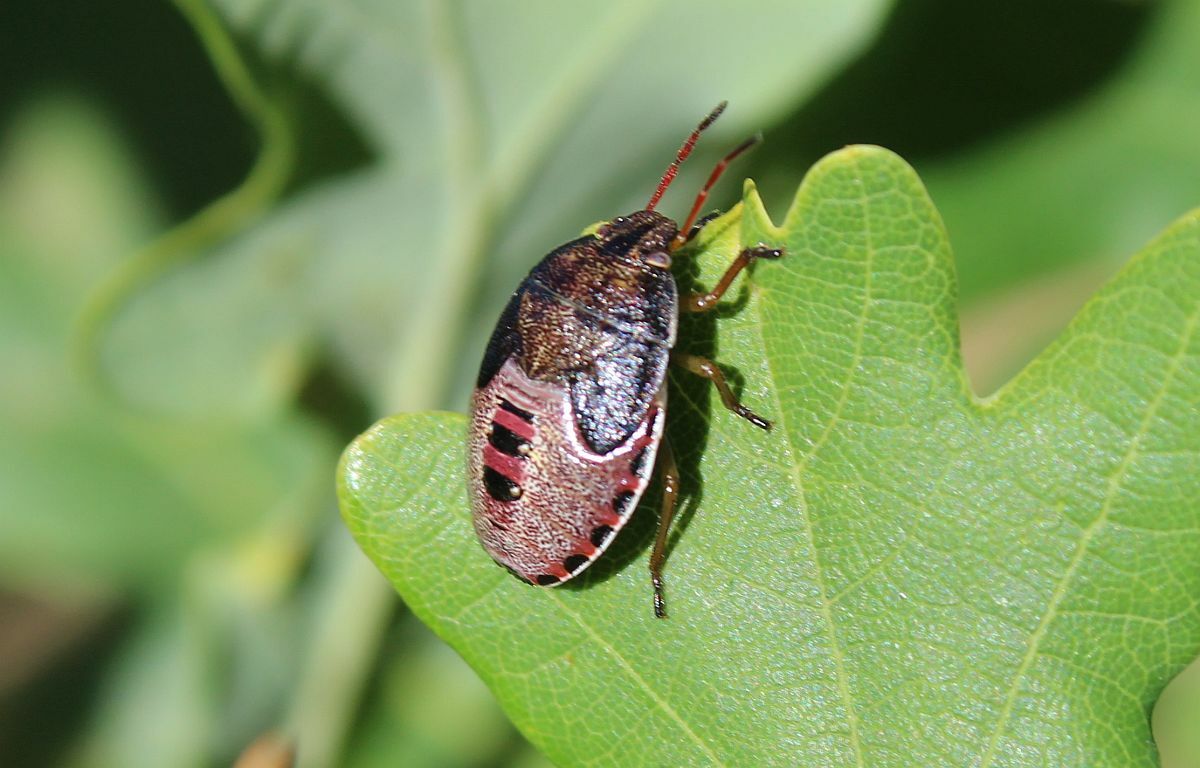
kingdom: Animalia
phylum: Arthropoda
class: Insecta
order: Hemiptera
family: Pentatomidae
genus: Piezodorus
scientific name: Piezodorus lituratus
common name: Stink bug
